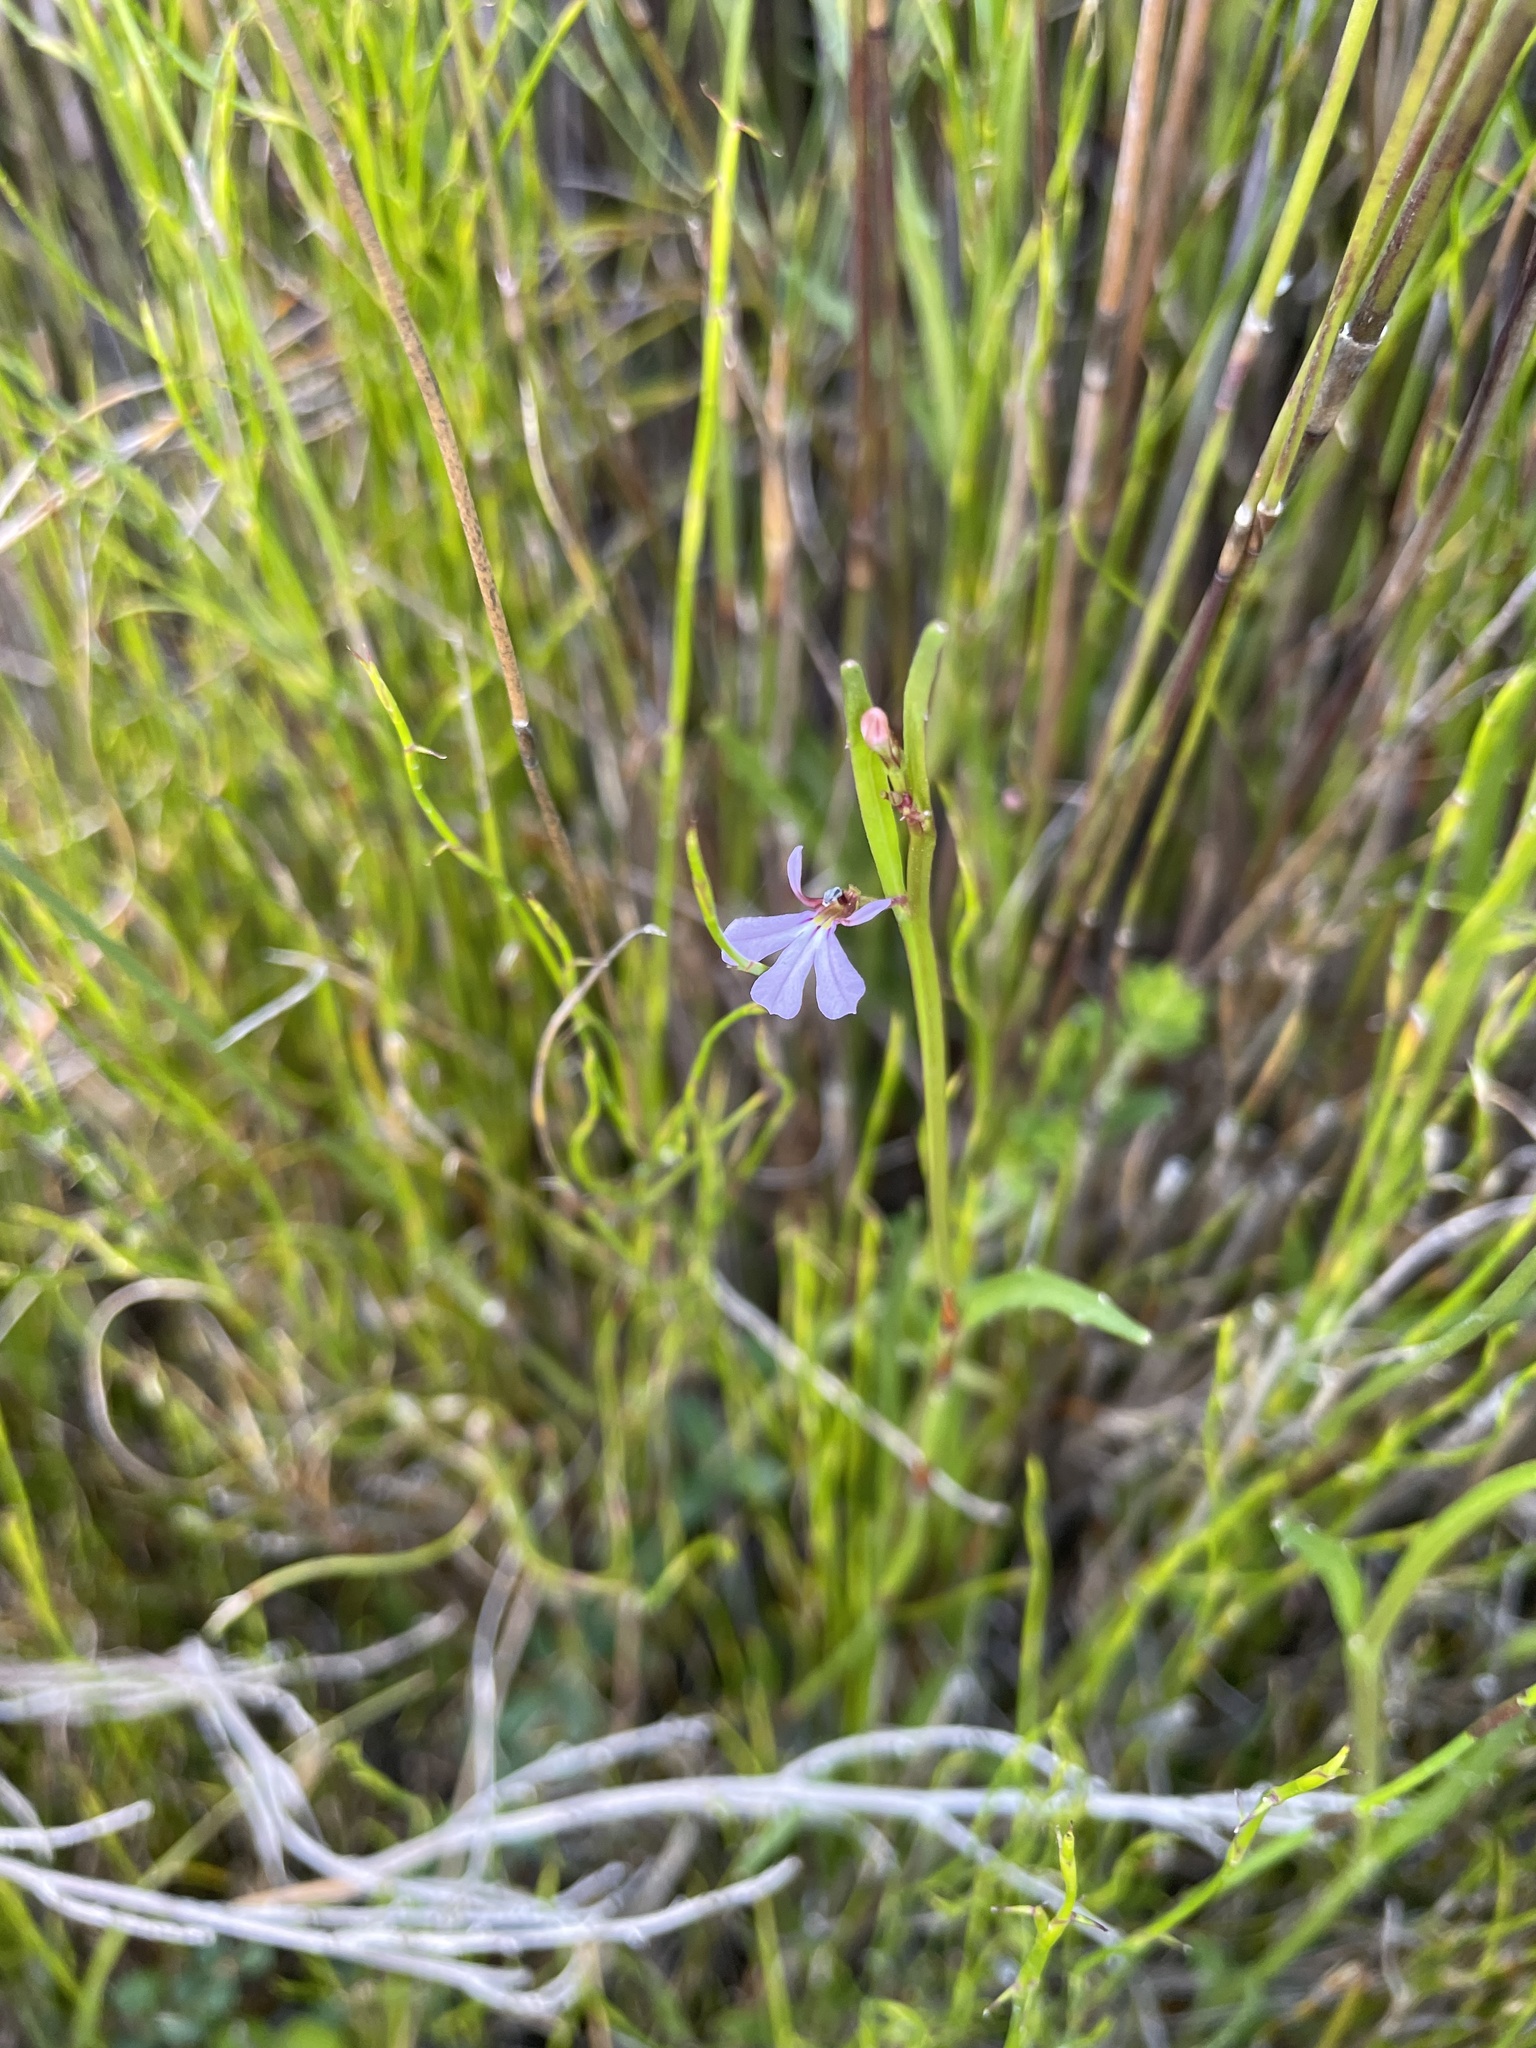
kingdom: Plantae
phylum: Tracheophyta
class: Magnoliopsida
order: Asterales
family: Campanulaceae
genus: Lobelia
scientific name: Lobelia anceps
